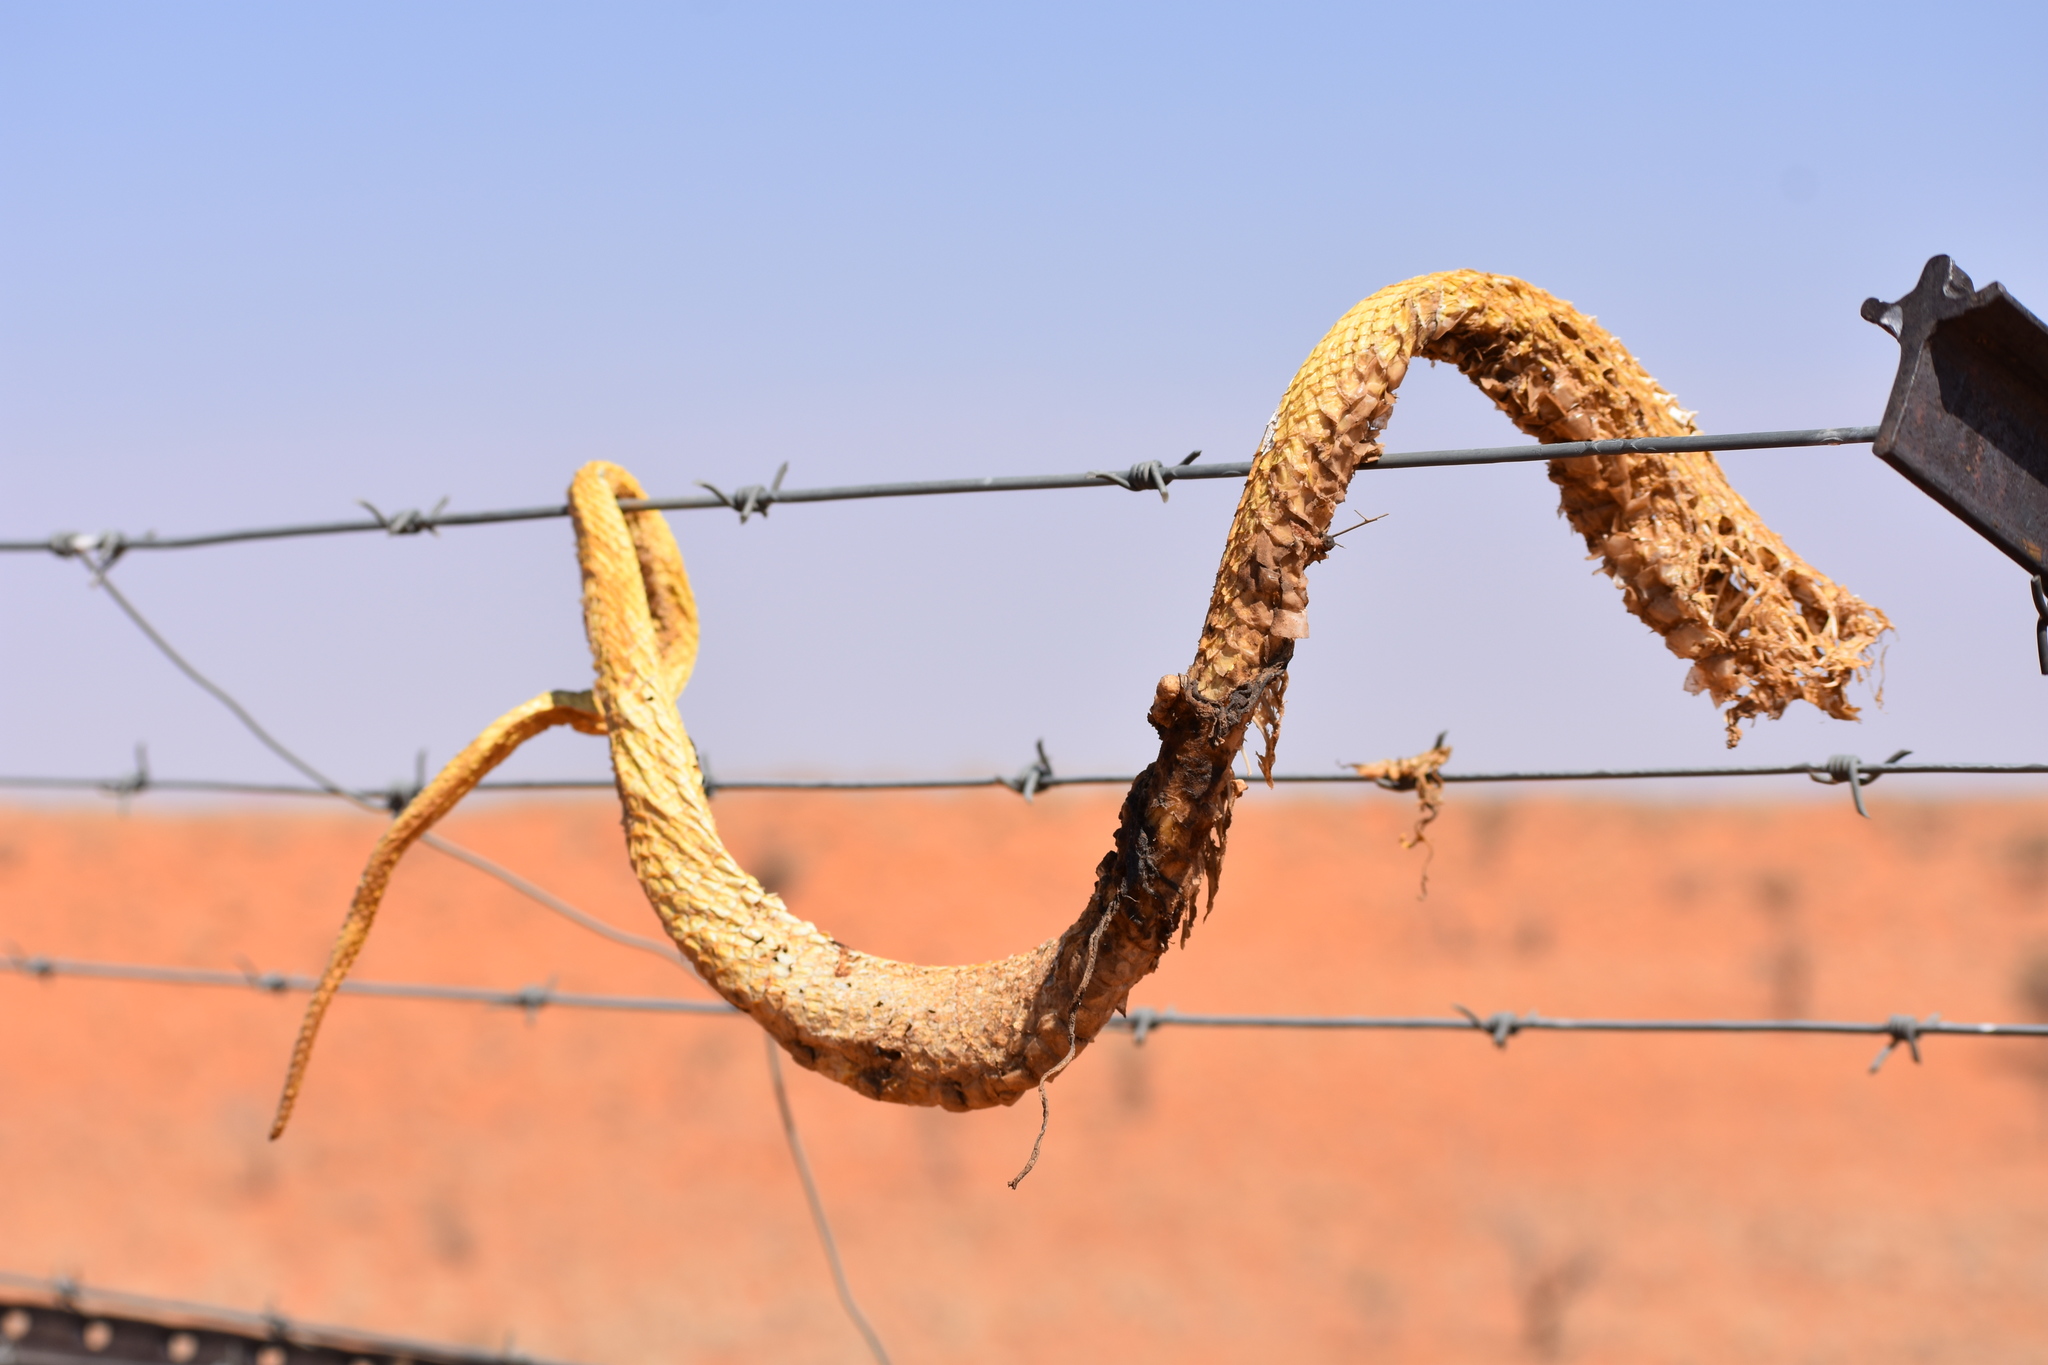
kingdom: Animalia
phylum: Chordata
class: Squamata
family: Elapidae
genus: Naja
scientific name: Naja nivea
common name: Cape cobra
